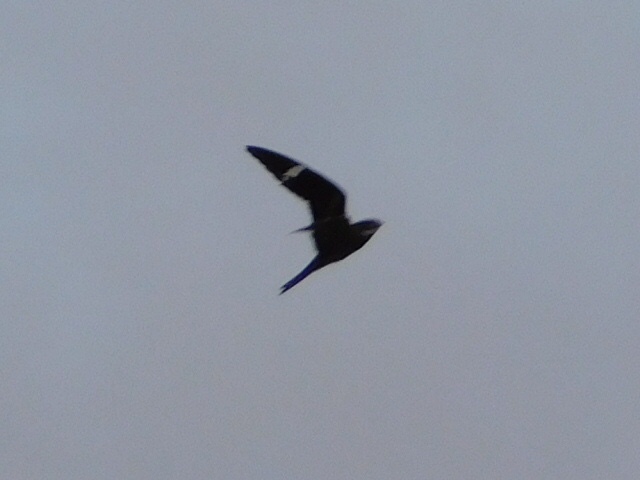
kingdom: Animalia
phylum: Chordata
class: Aves
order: Caprimulgiformes
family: Caprimulgidae
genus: Chordeiles
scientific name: Chordeiles minor
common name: Common nighthawk
